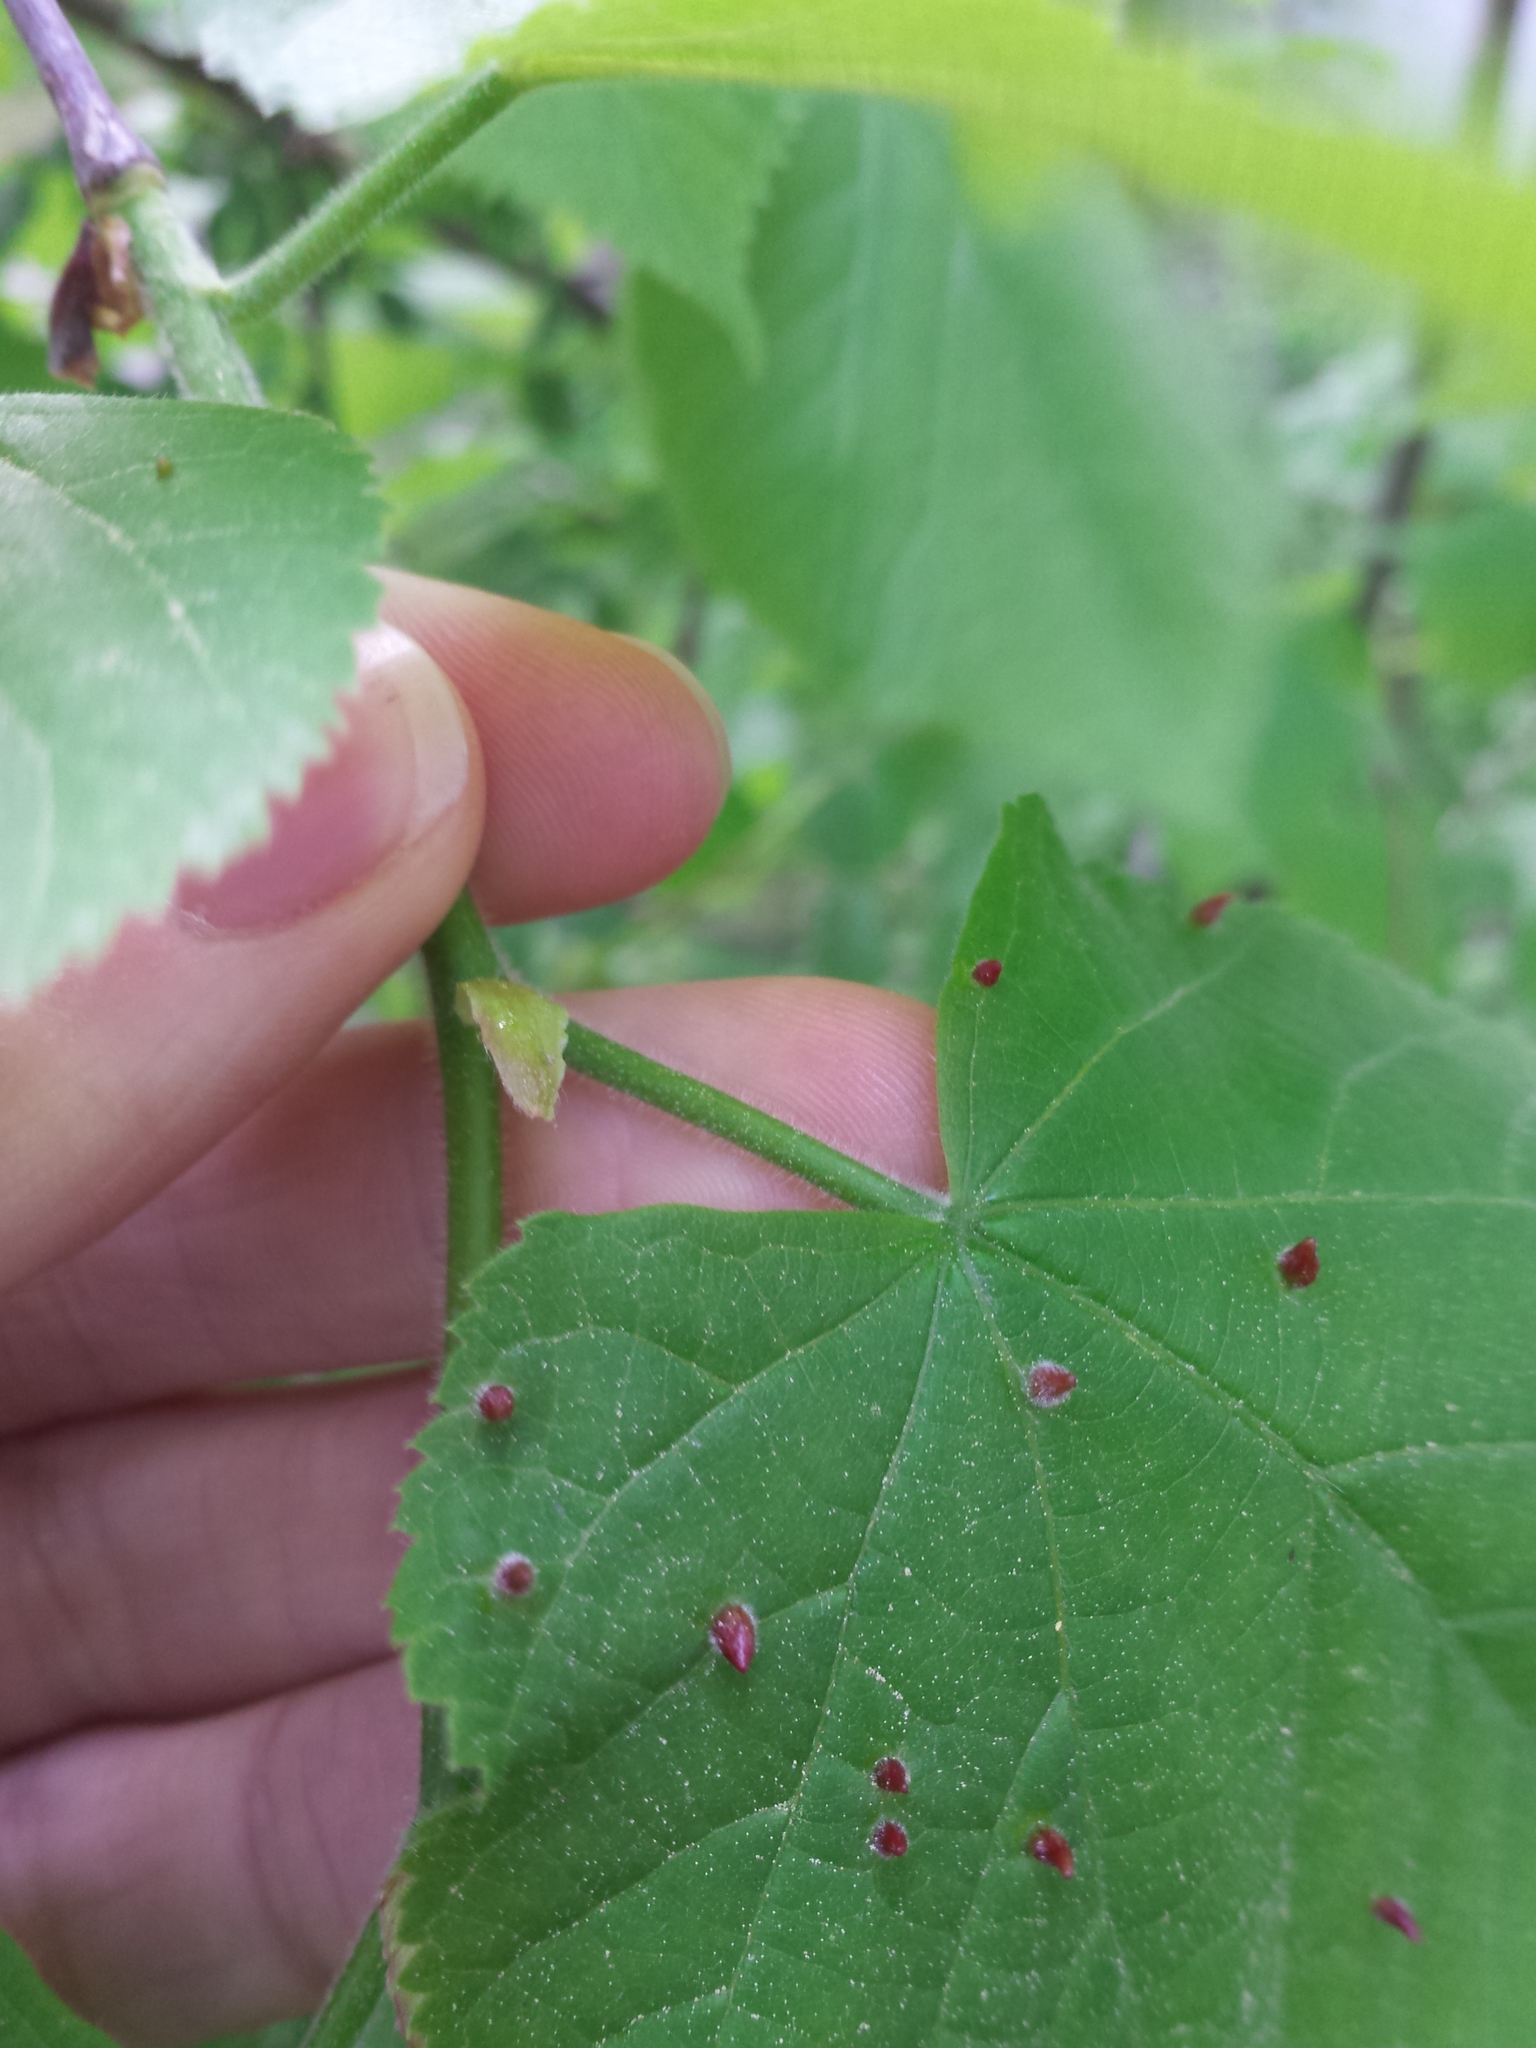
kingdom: Animalia
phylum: Arthropoda
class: Arachnida
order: Trombidiformes
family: Eriophyidae
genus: Eriophyes
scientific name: Eriophyes tiliae
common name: Red nail gall mite
